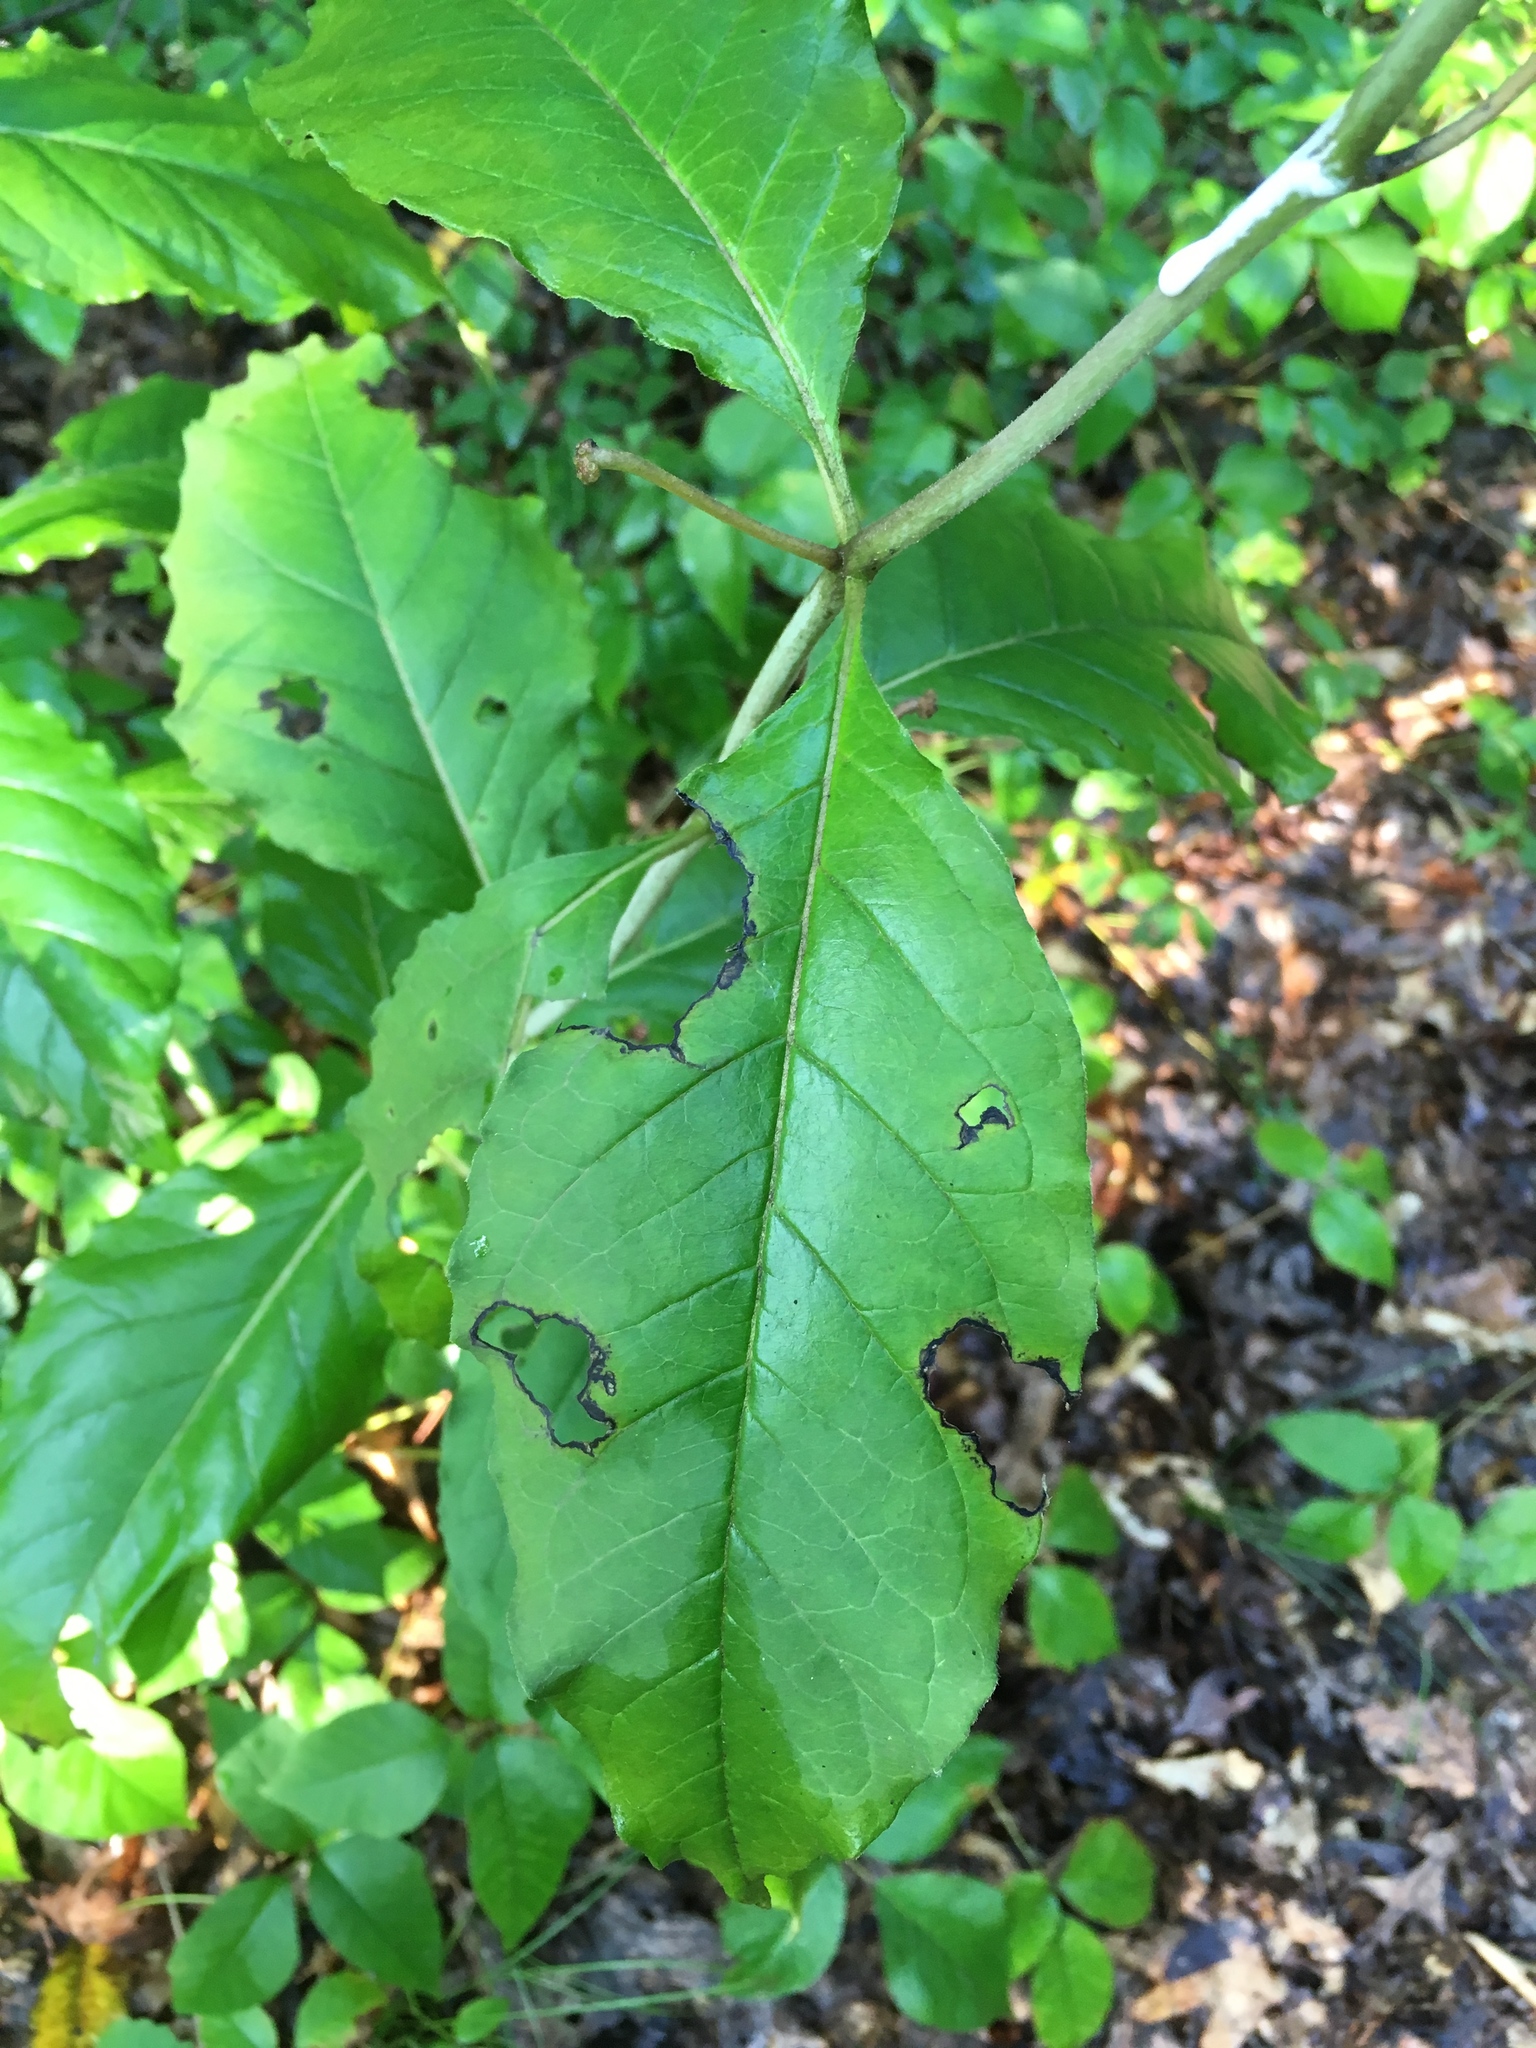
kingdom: Plantae
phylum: Tracheophyta
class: Magnoliopsida
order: Gentianales
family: Apocynaceae
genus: Asclepias
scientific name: Asclepias exaltata
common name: Poke milkweed
